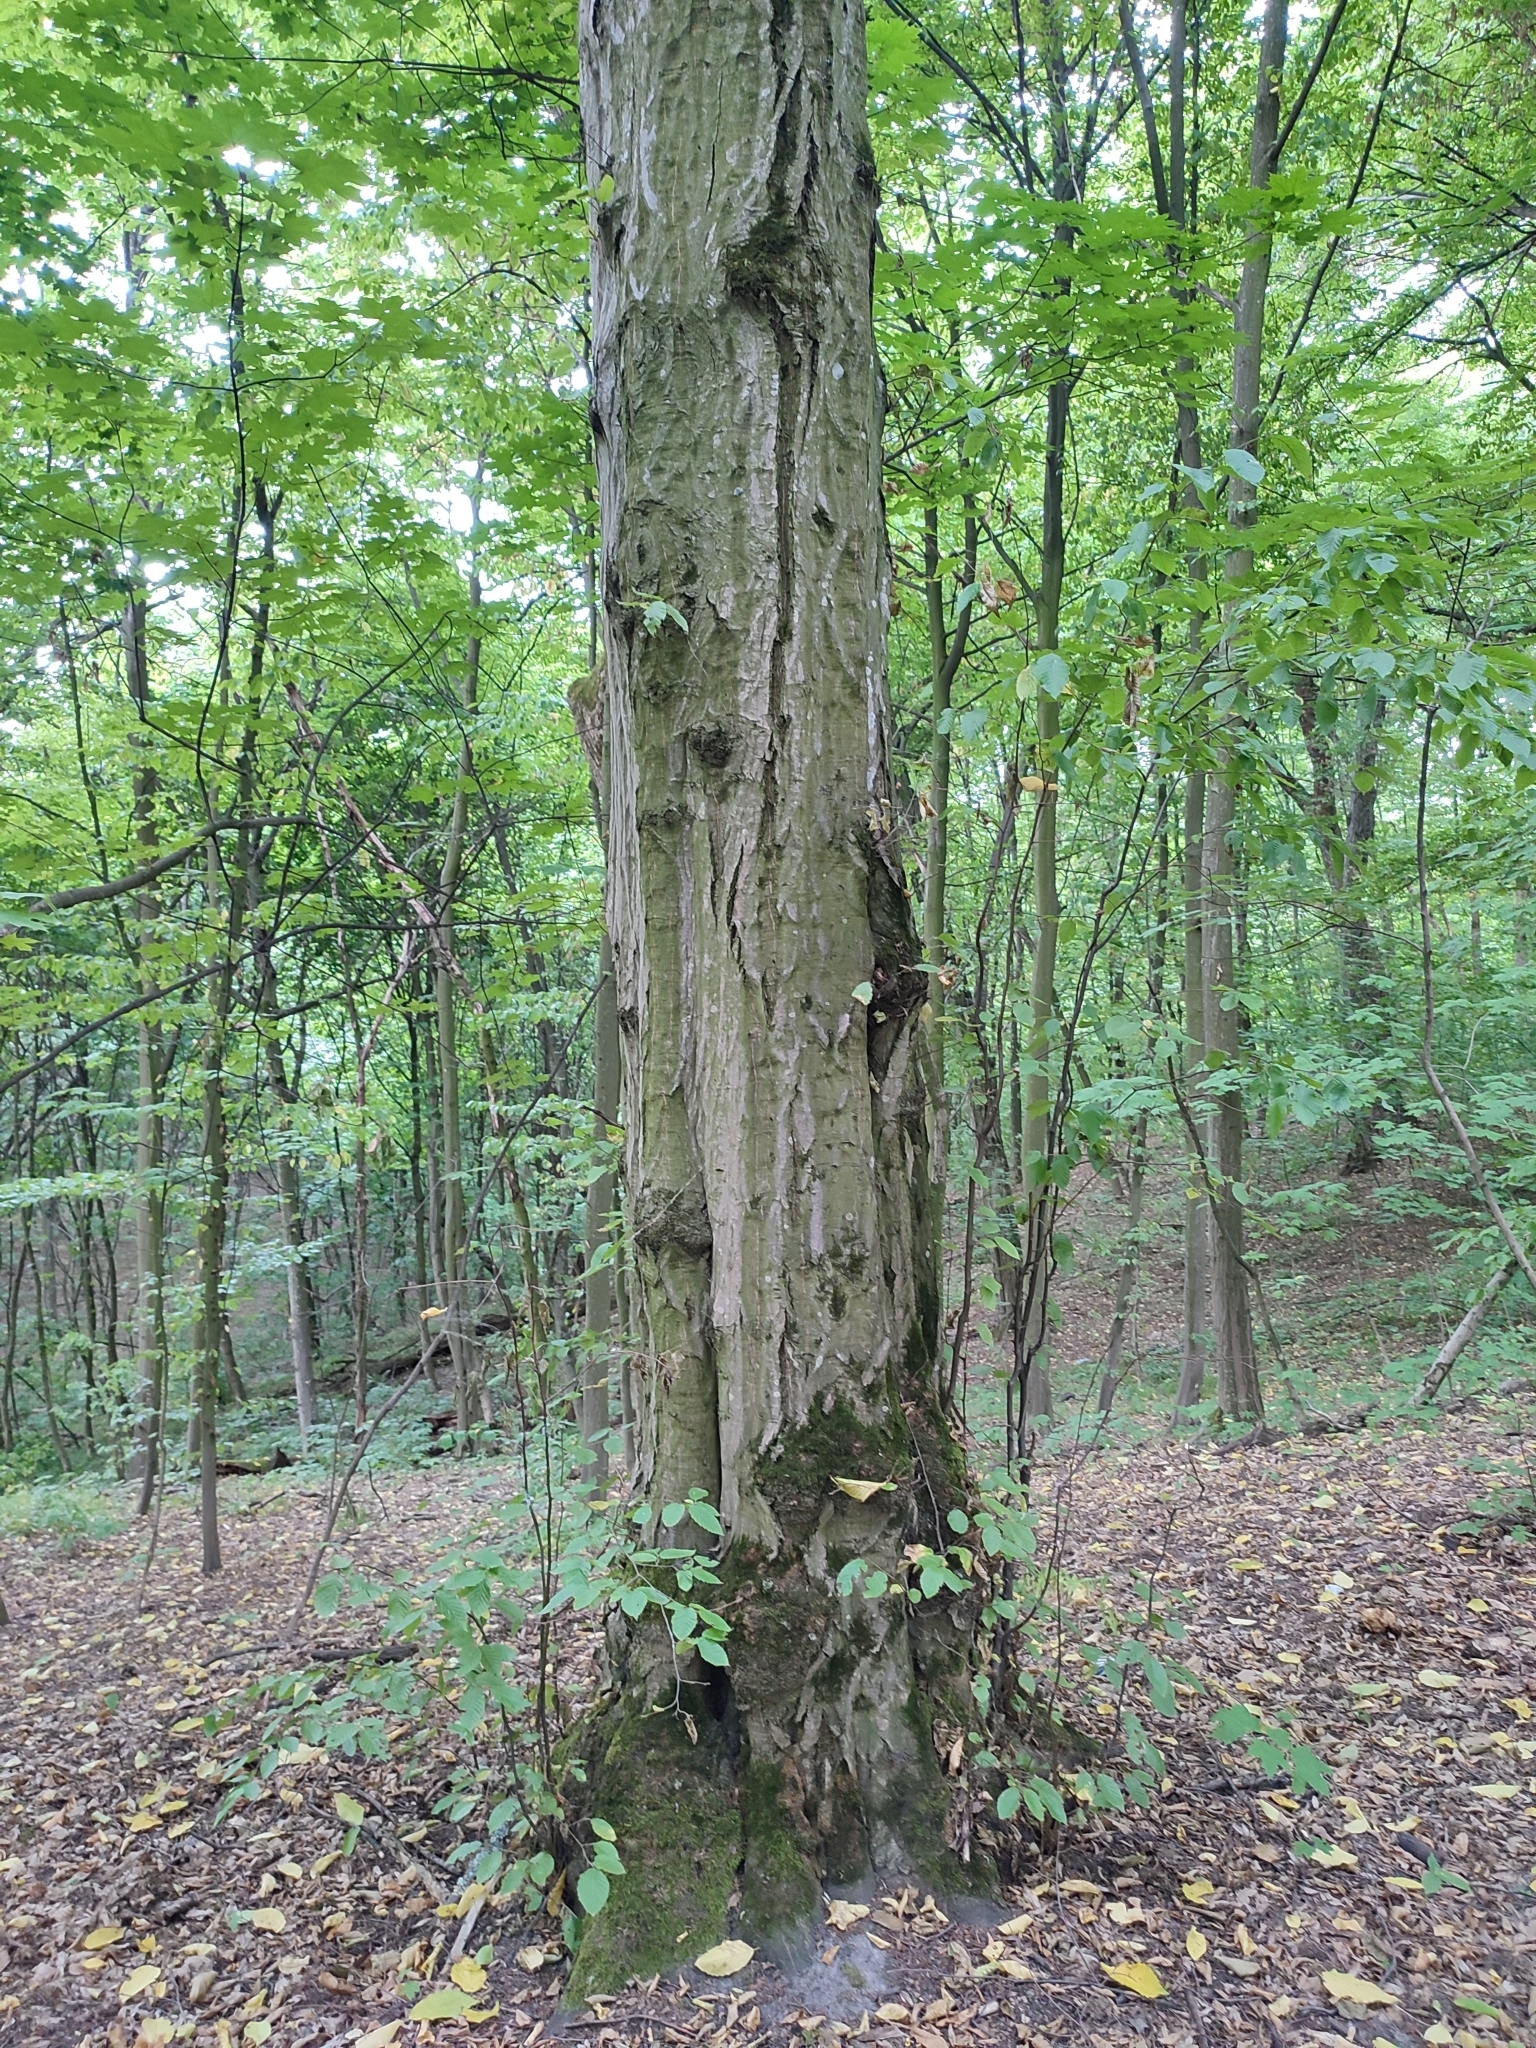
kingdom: Plantae
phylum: Tracheophyta
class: Magnoliopsida
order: Fagales
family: Betulaceae
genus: Carpinus
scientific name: Carpinus betulus
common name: Hornbeam
